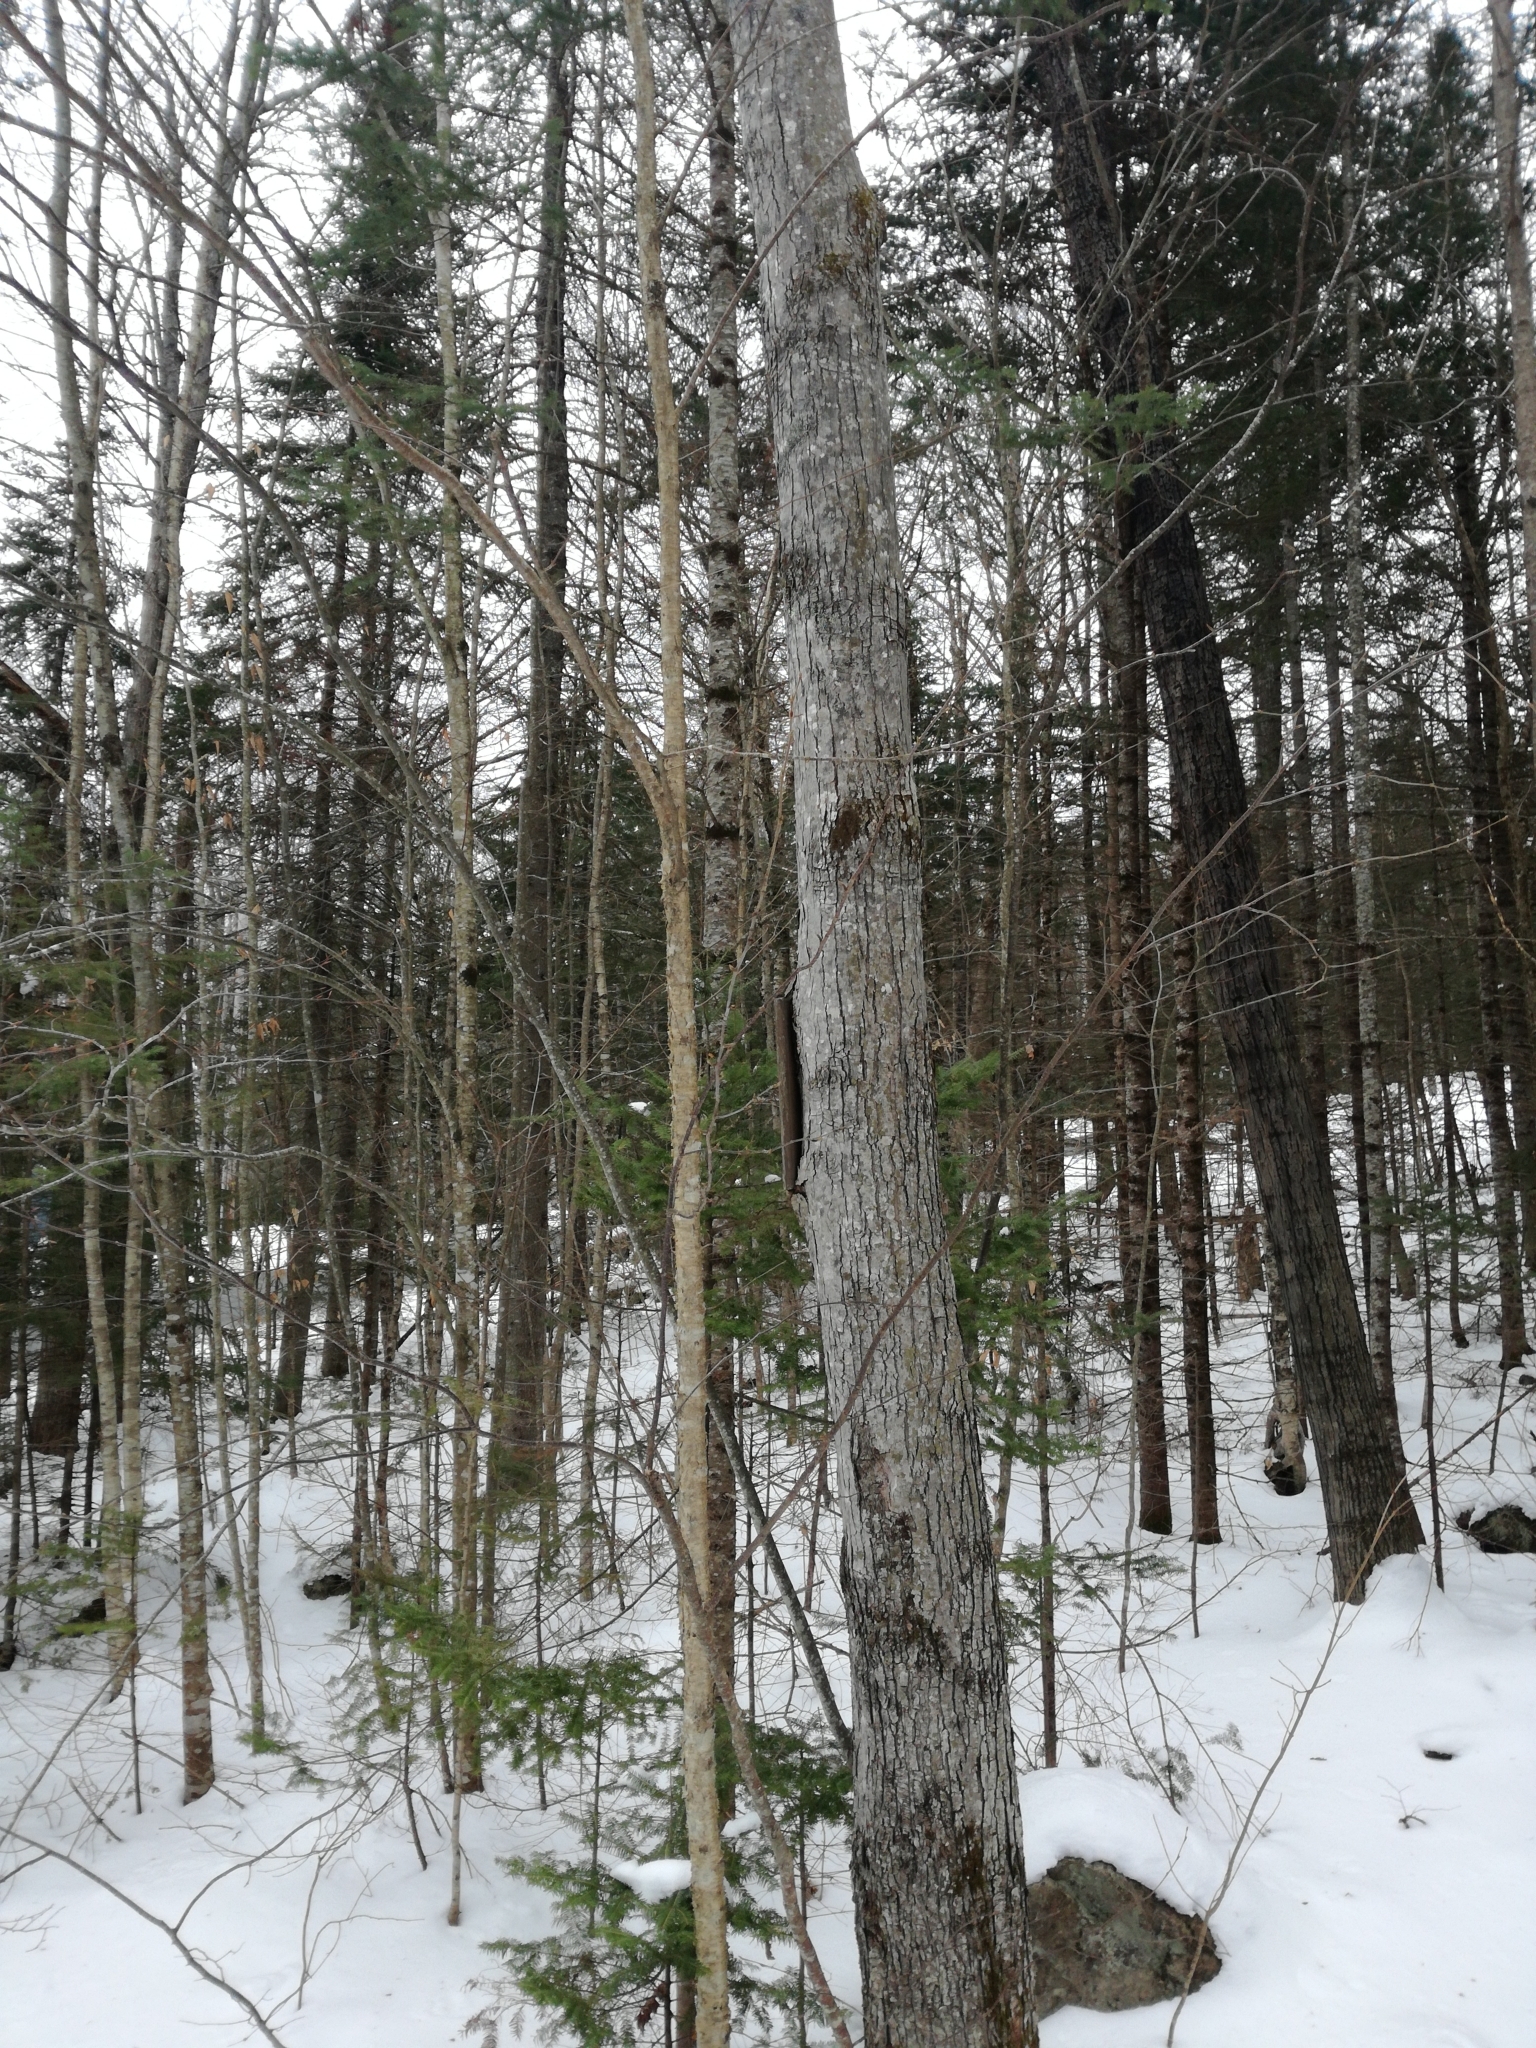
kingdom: Plantae
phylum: Tracheophyta
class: Magnoliopsida
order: Fagales
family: Betulaceae
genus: Betula
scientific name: Betula alleghaniensis
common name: Yellow birch
